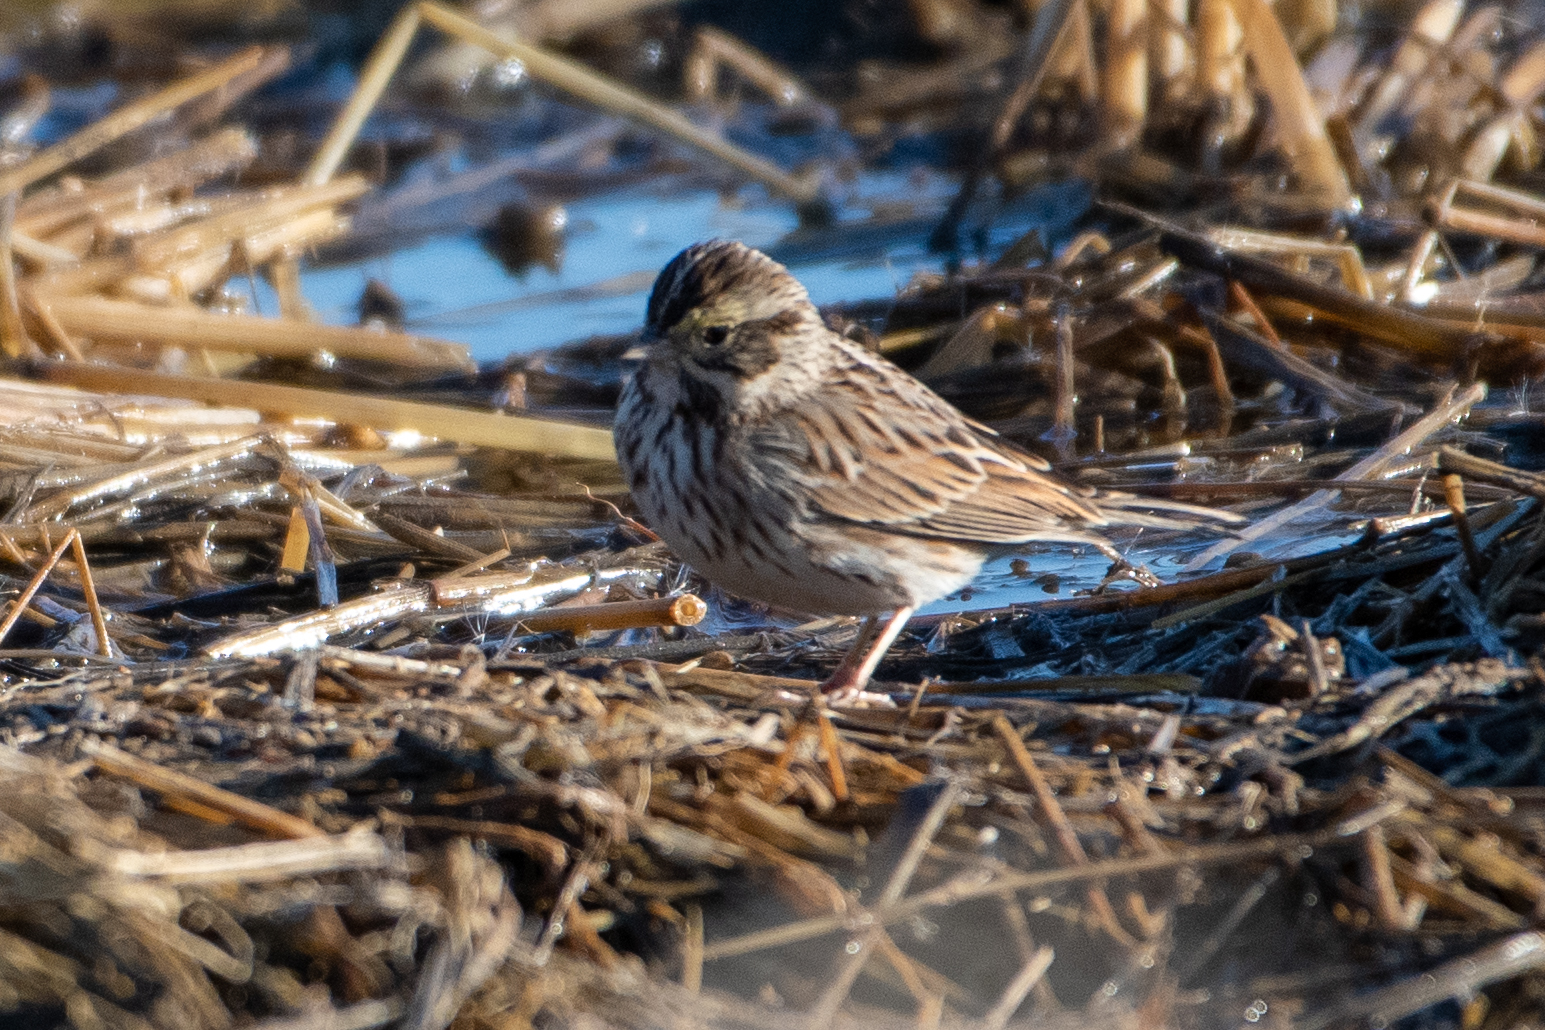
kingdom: Animalia
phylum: Chordata
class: Aves
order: Passeriformes
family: Passerellidae
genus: Passerculus
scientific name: Passerculus sandwichensis
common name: Savannah sparrow
